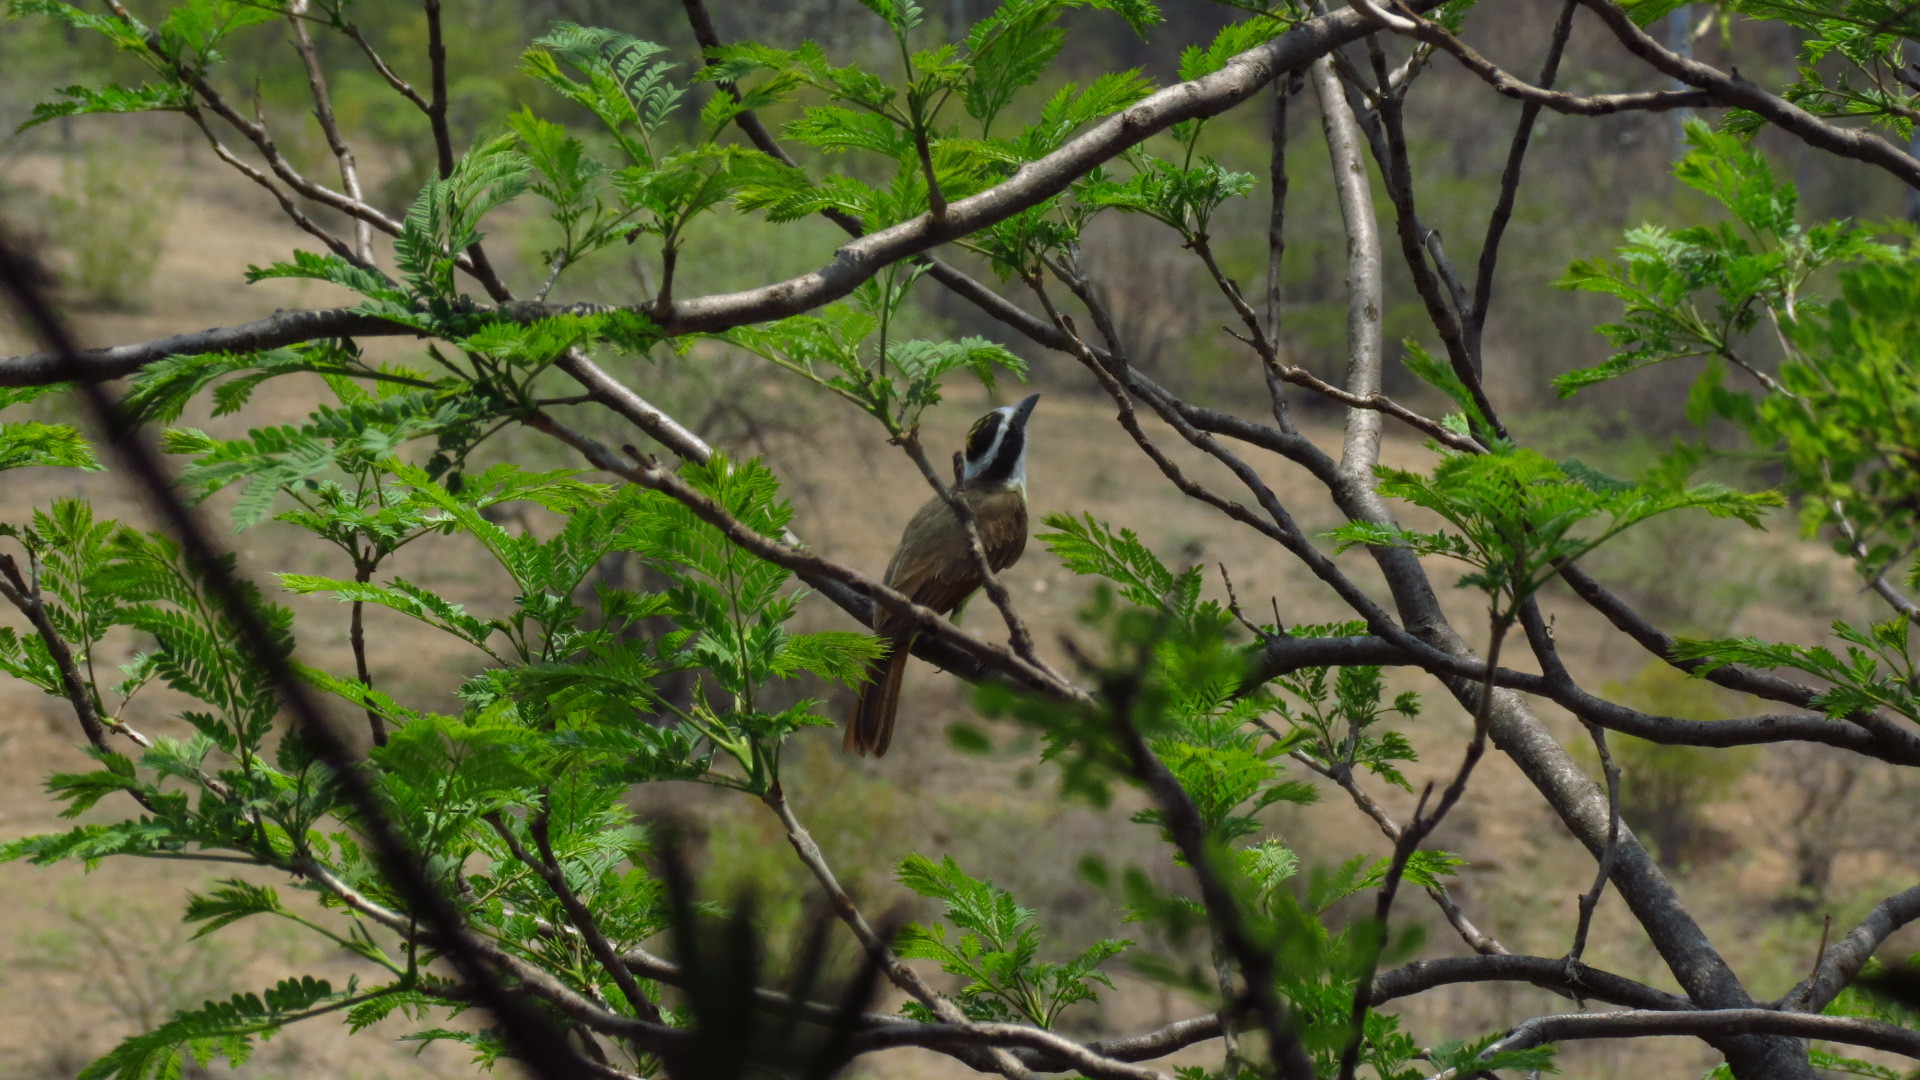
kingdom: Animalia
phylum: Chordata
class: Aves
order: Passeriformes
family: Tyrannidae
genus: Pitangus
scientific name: Pitangus sulphuratus
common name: Great kiskadee
